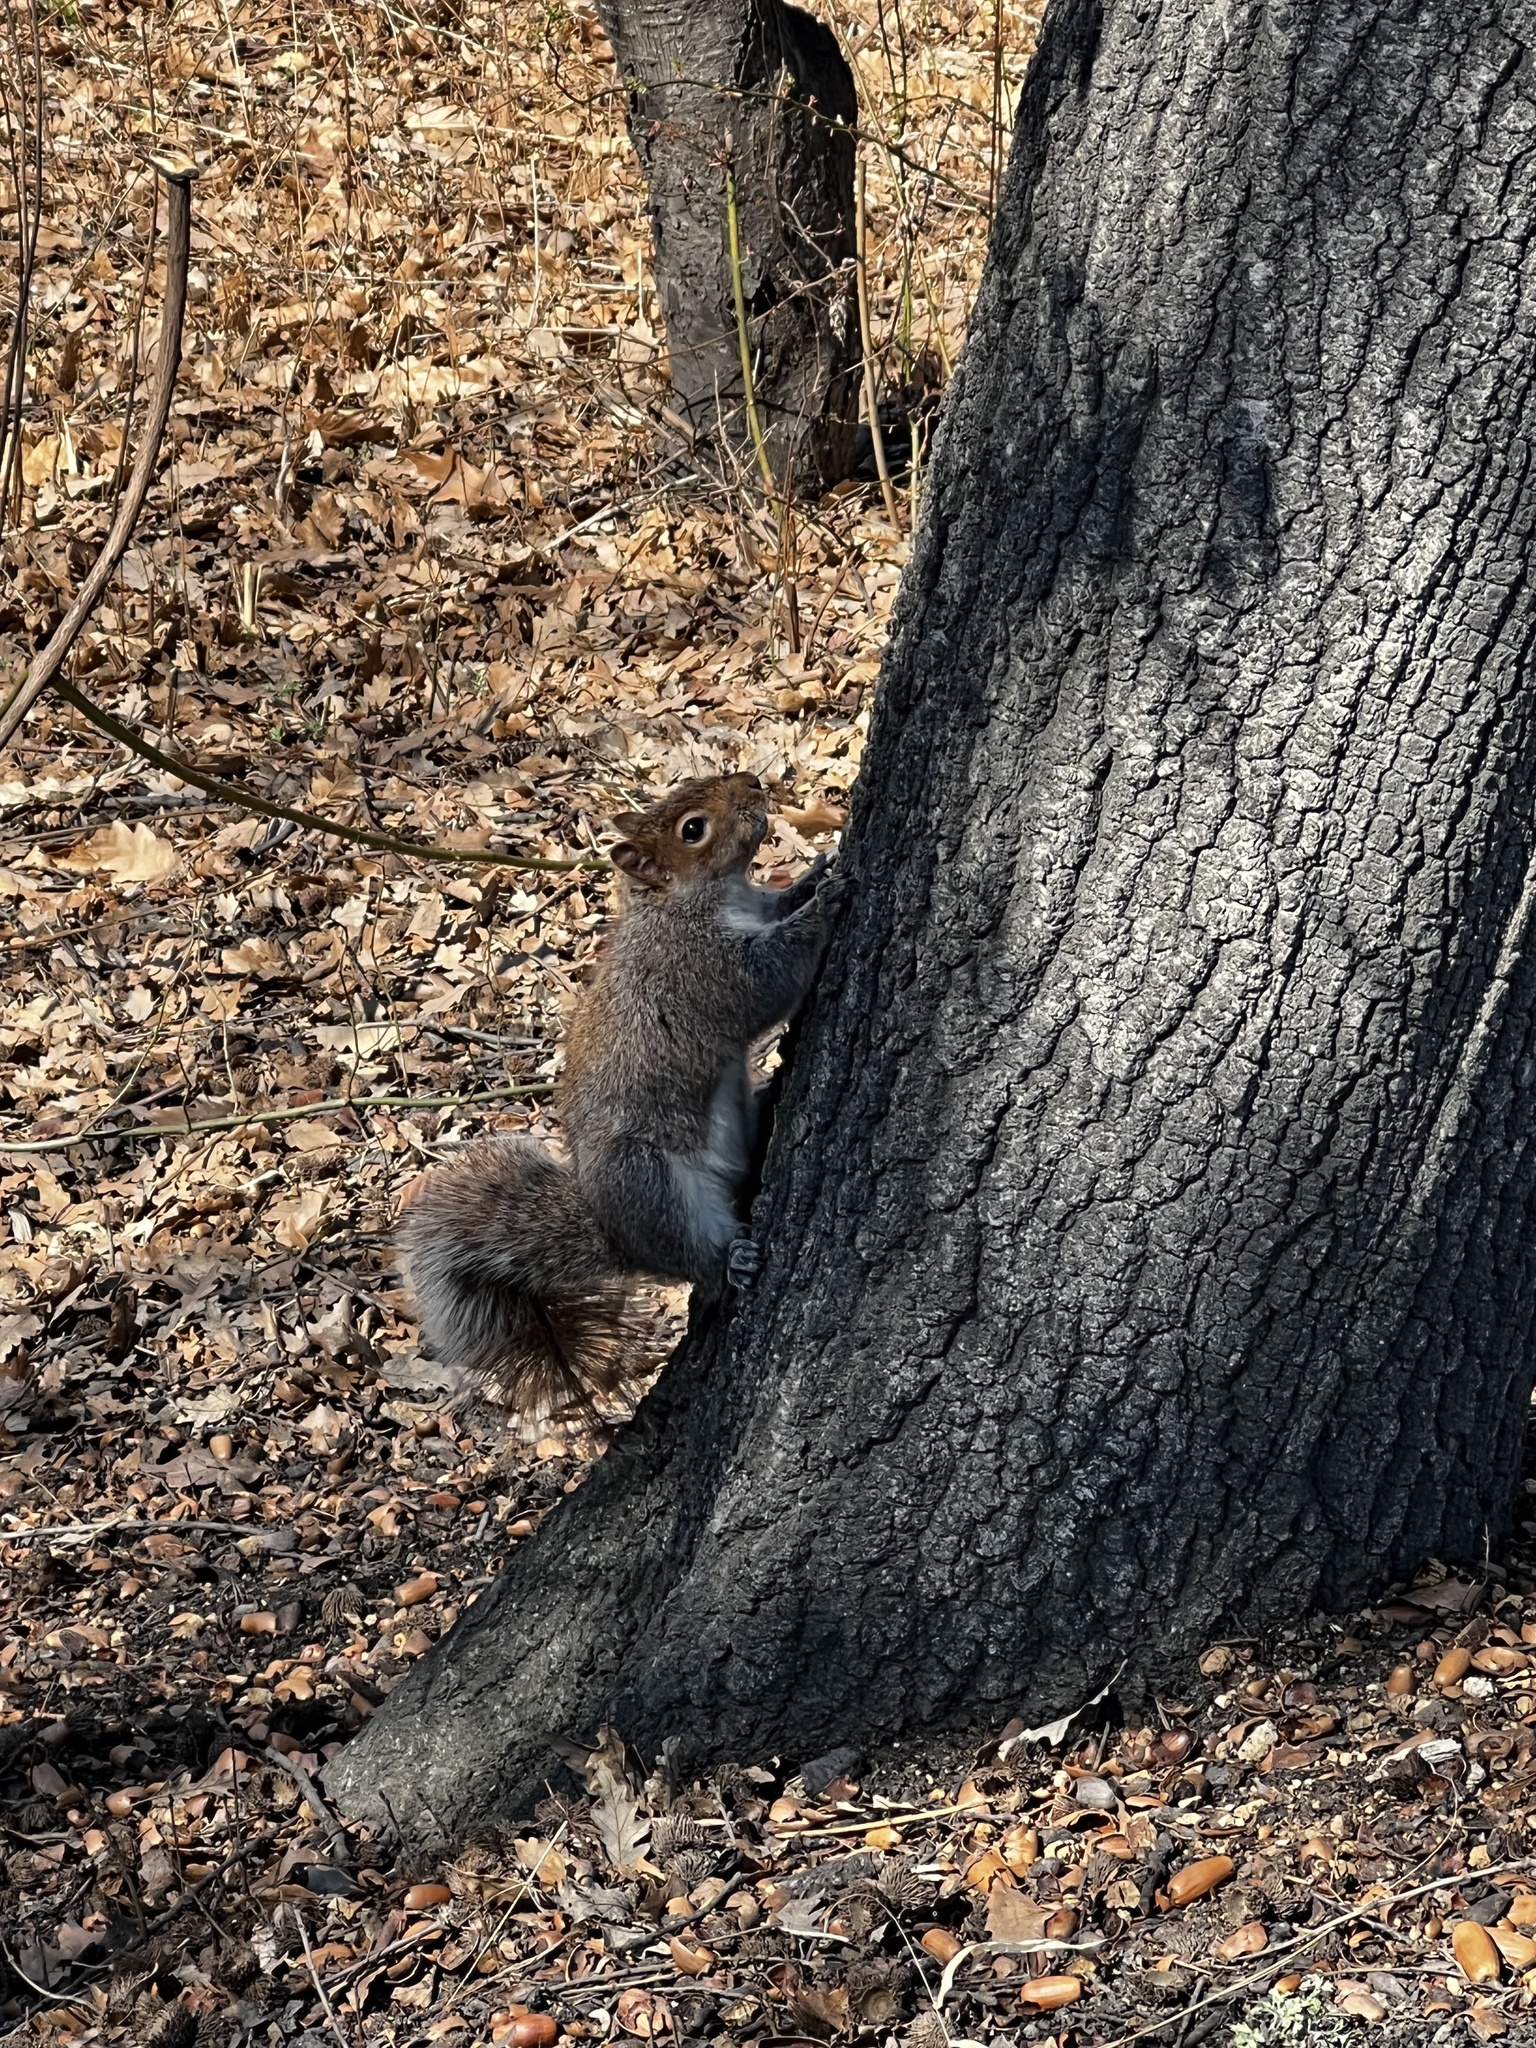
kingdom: Animalia
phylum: Chordata
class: Mammalia
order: Rodentia
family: Sciuridae
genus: Sciurus
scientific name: Sciurus carolinensis
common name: Eastern gray squirrel
